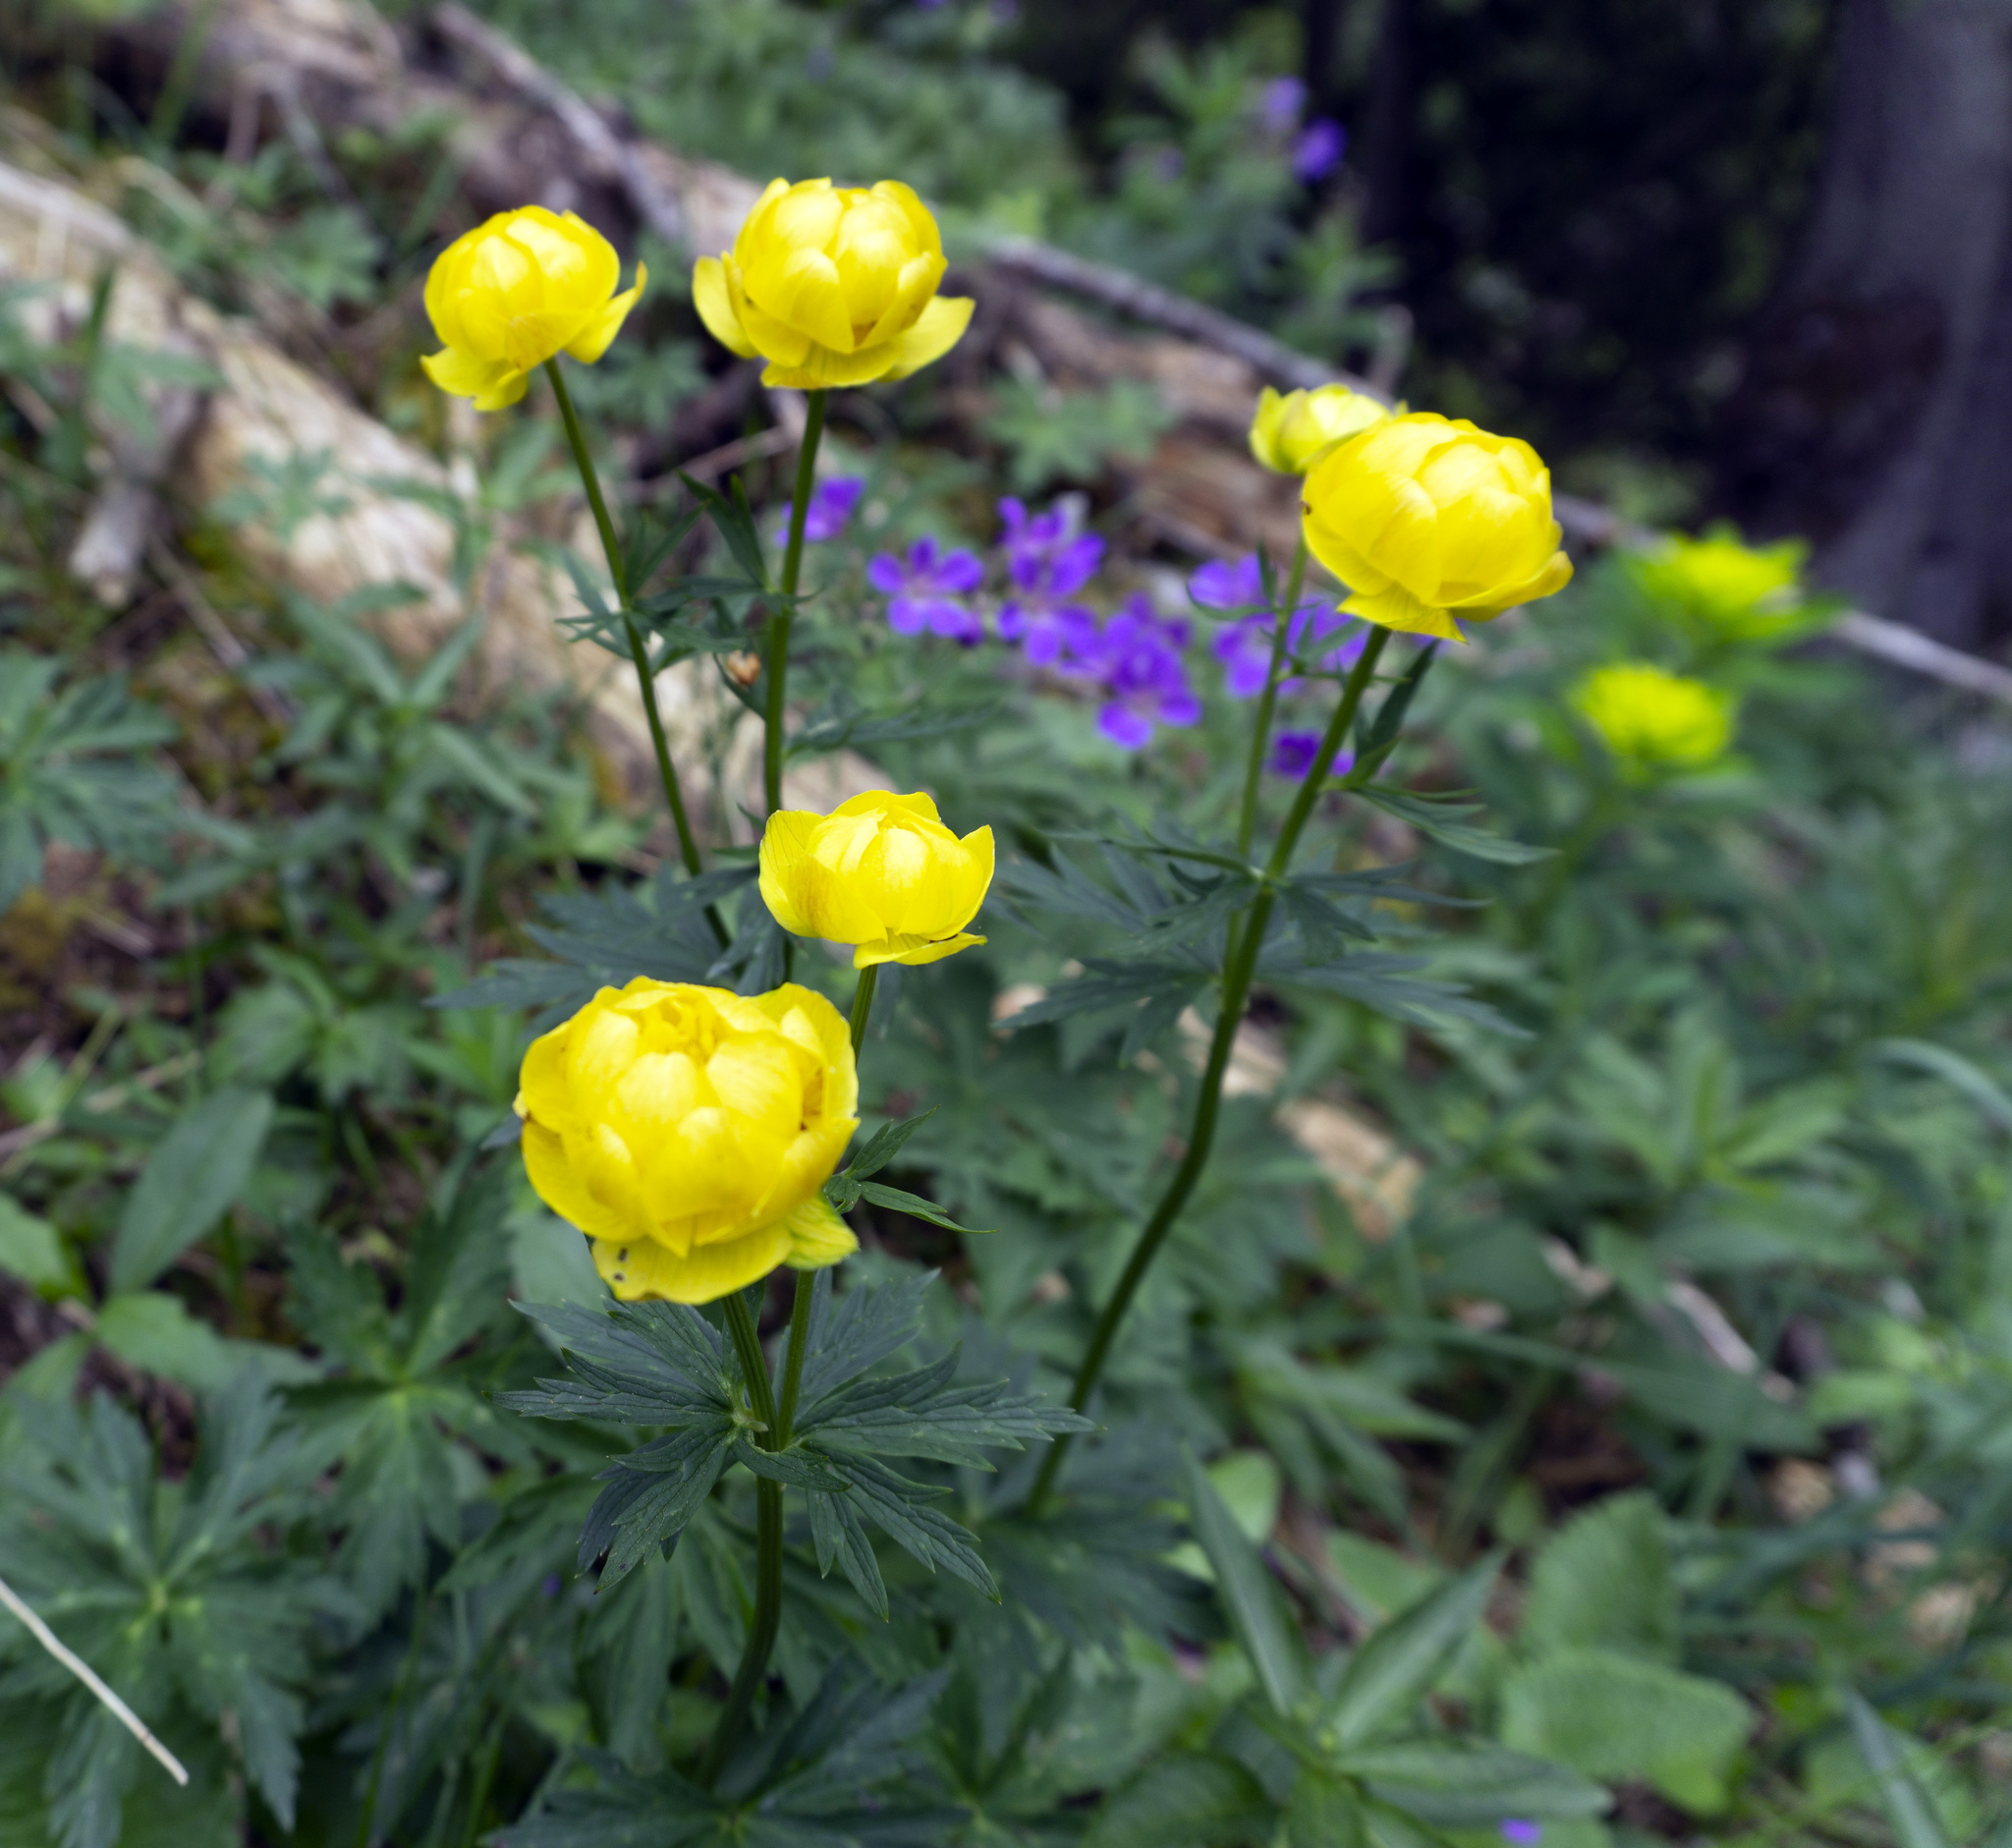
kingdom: Plantae
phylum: Tracheophyta
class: Magnoliopsida
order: Ranunculales
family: Ranunculaceae
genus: Trollius
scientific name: Trollius europaeus
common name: European globeflower
